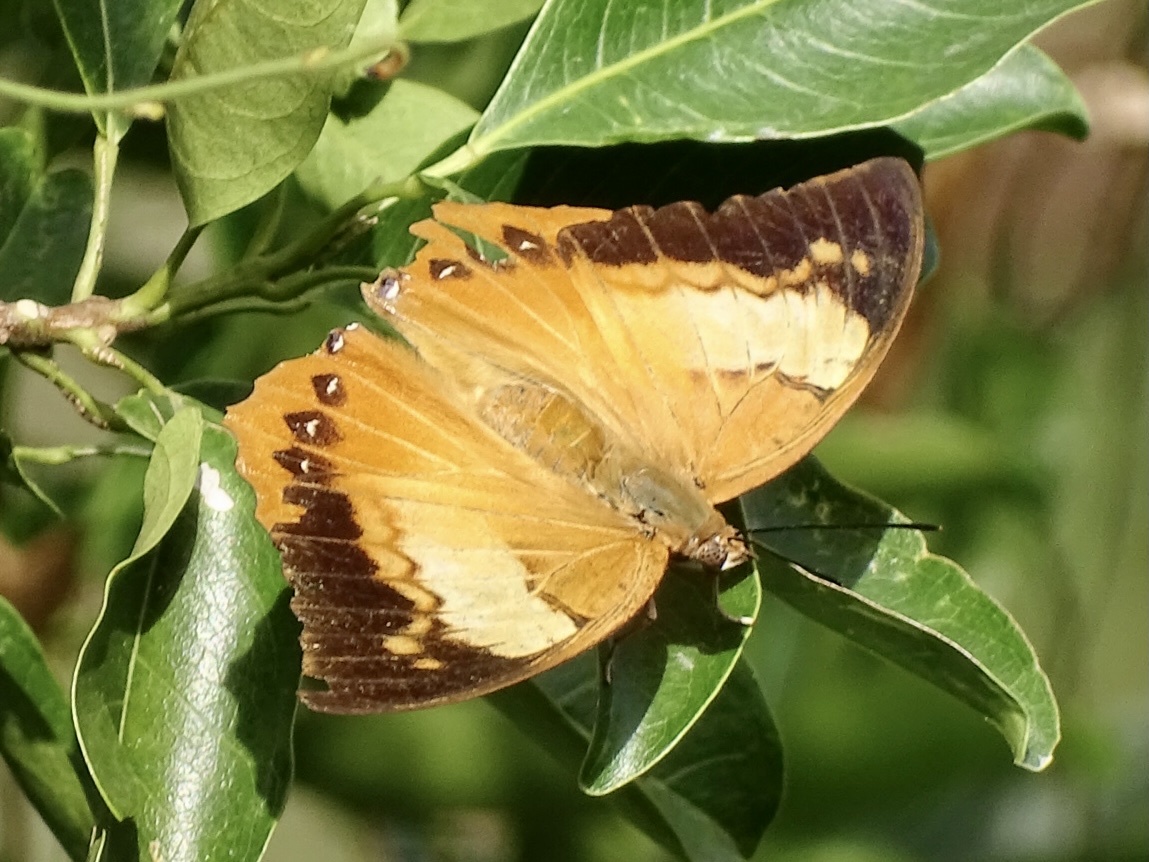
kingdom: Animalia
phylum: Arthropoda
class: Insecta
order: Lepidoptera
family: Nymphalidae
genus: Charaxes
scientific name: Charaxes bernardus
